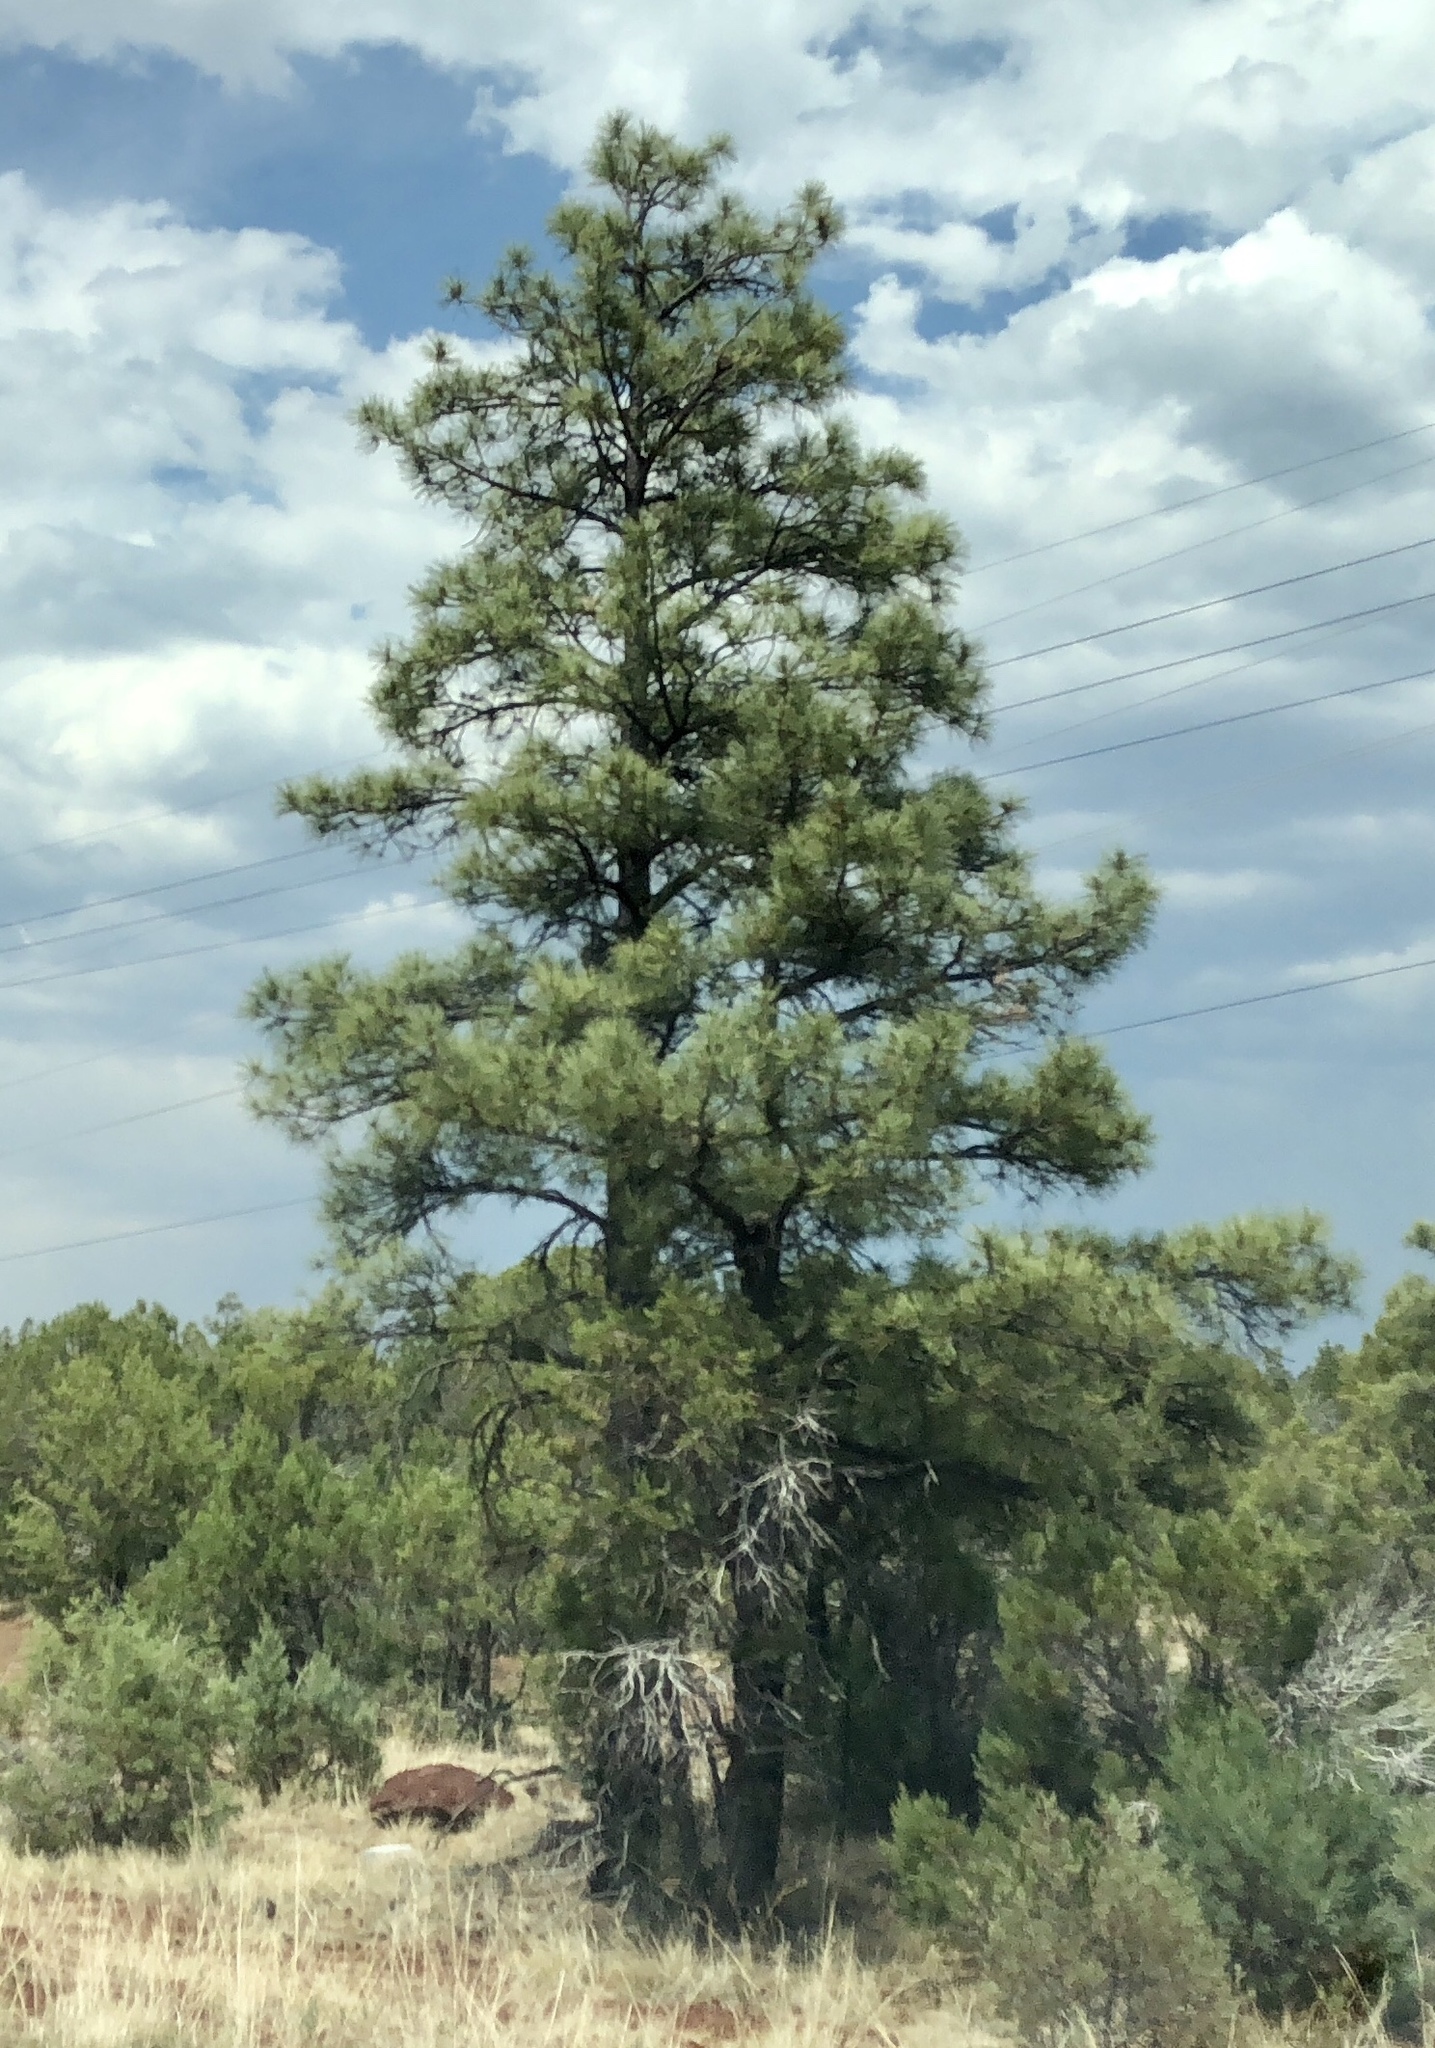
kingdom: Plantae
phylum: Tracheophyta
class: Pinopsida
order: Pinales
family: Pinaceae
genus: Pinus
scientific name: Pinus ponderosa
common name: Western yellow-pine
